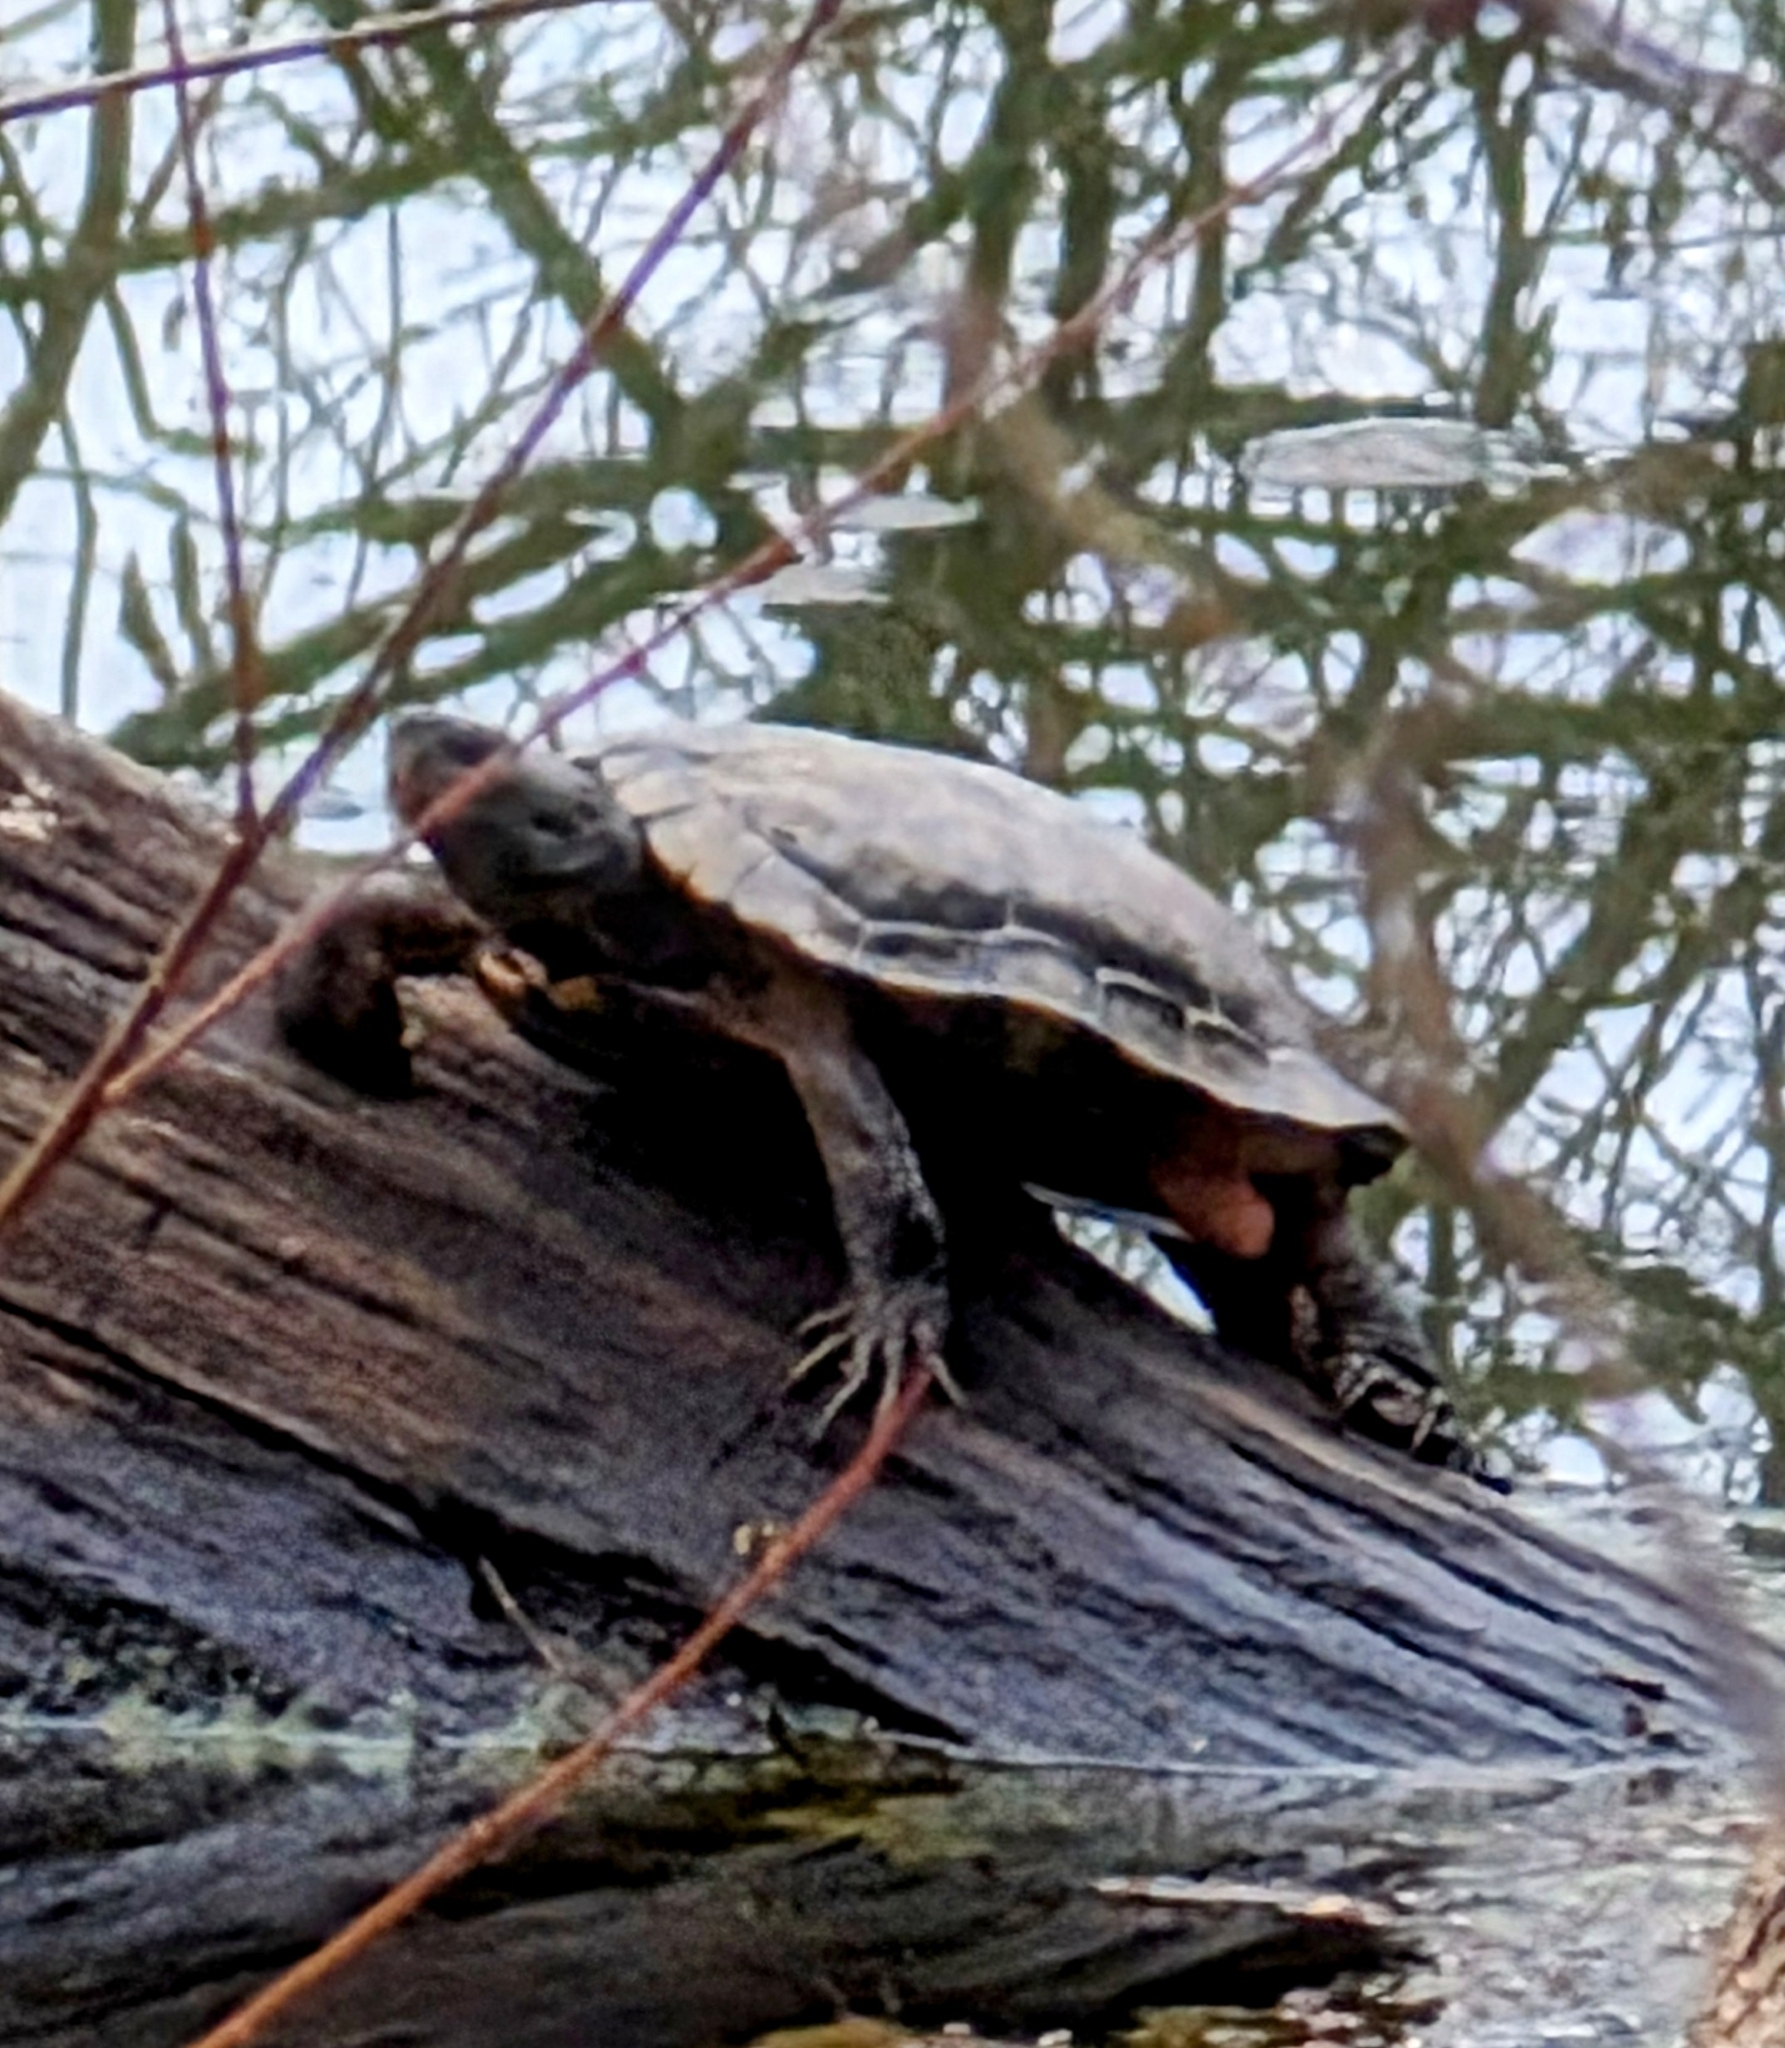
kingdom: Animalia
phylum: Chordata
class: Testudines
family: Emydidae
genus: Trachemys
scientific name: Trachemys scripta
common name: Slider
